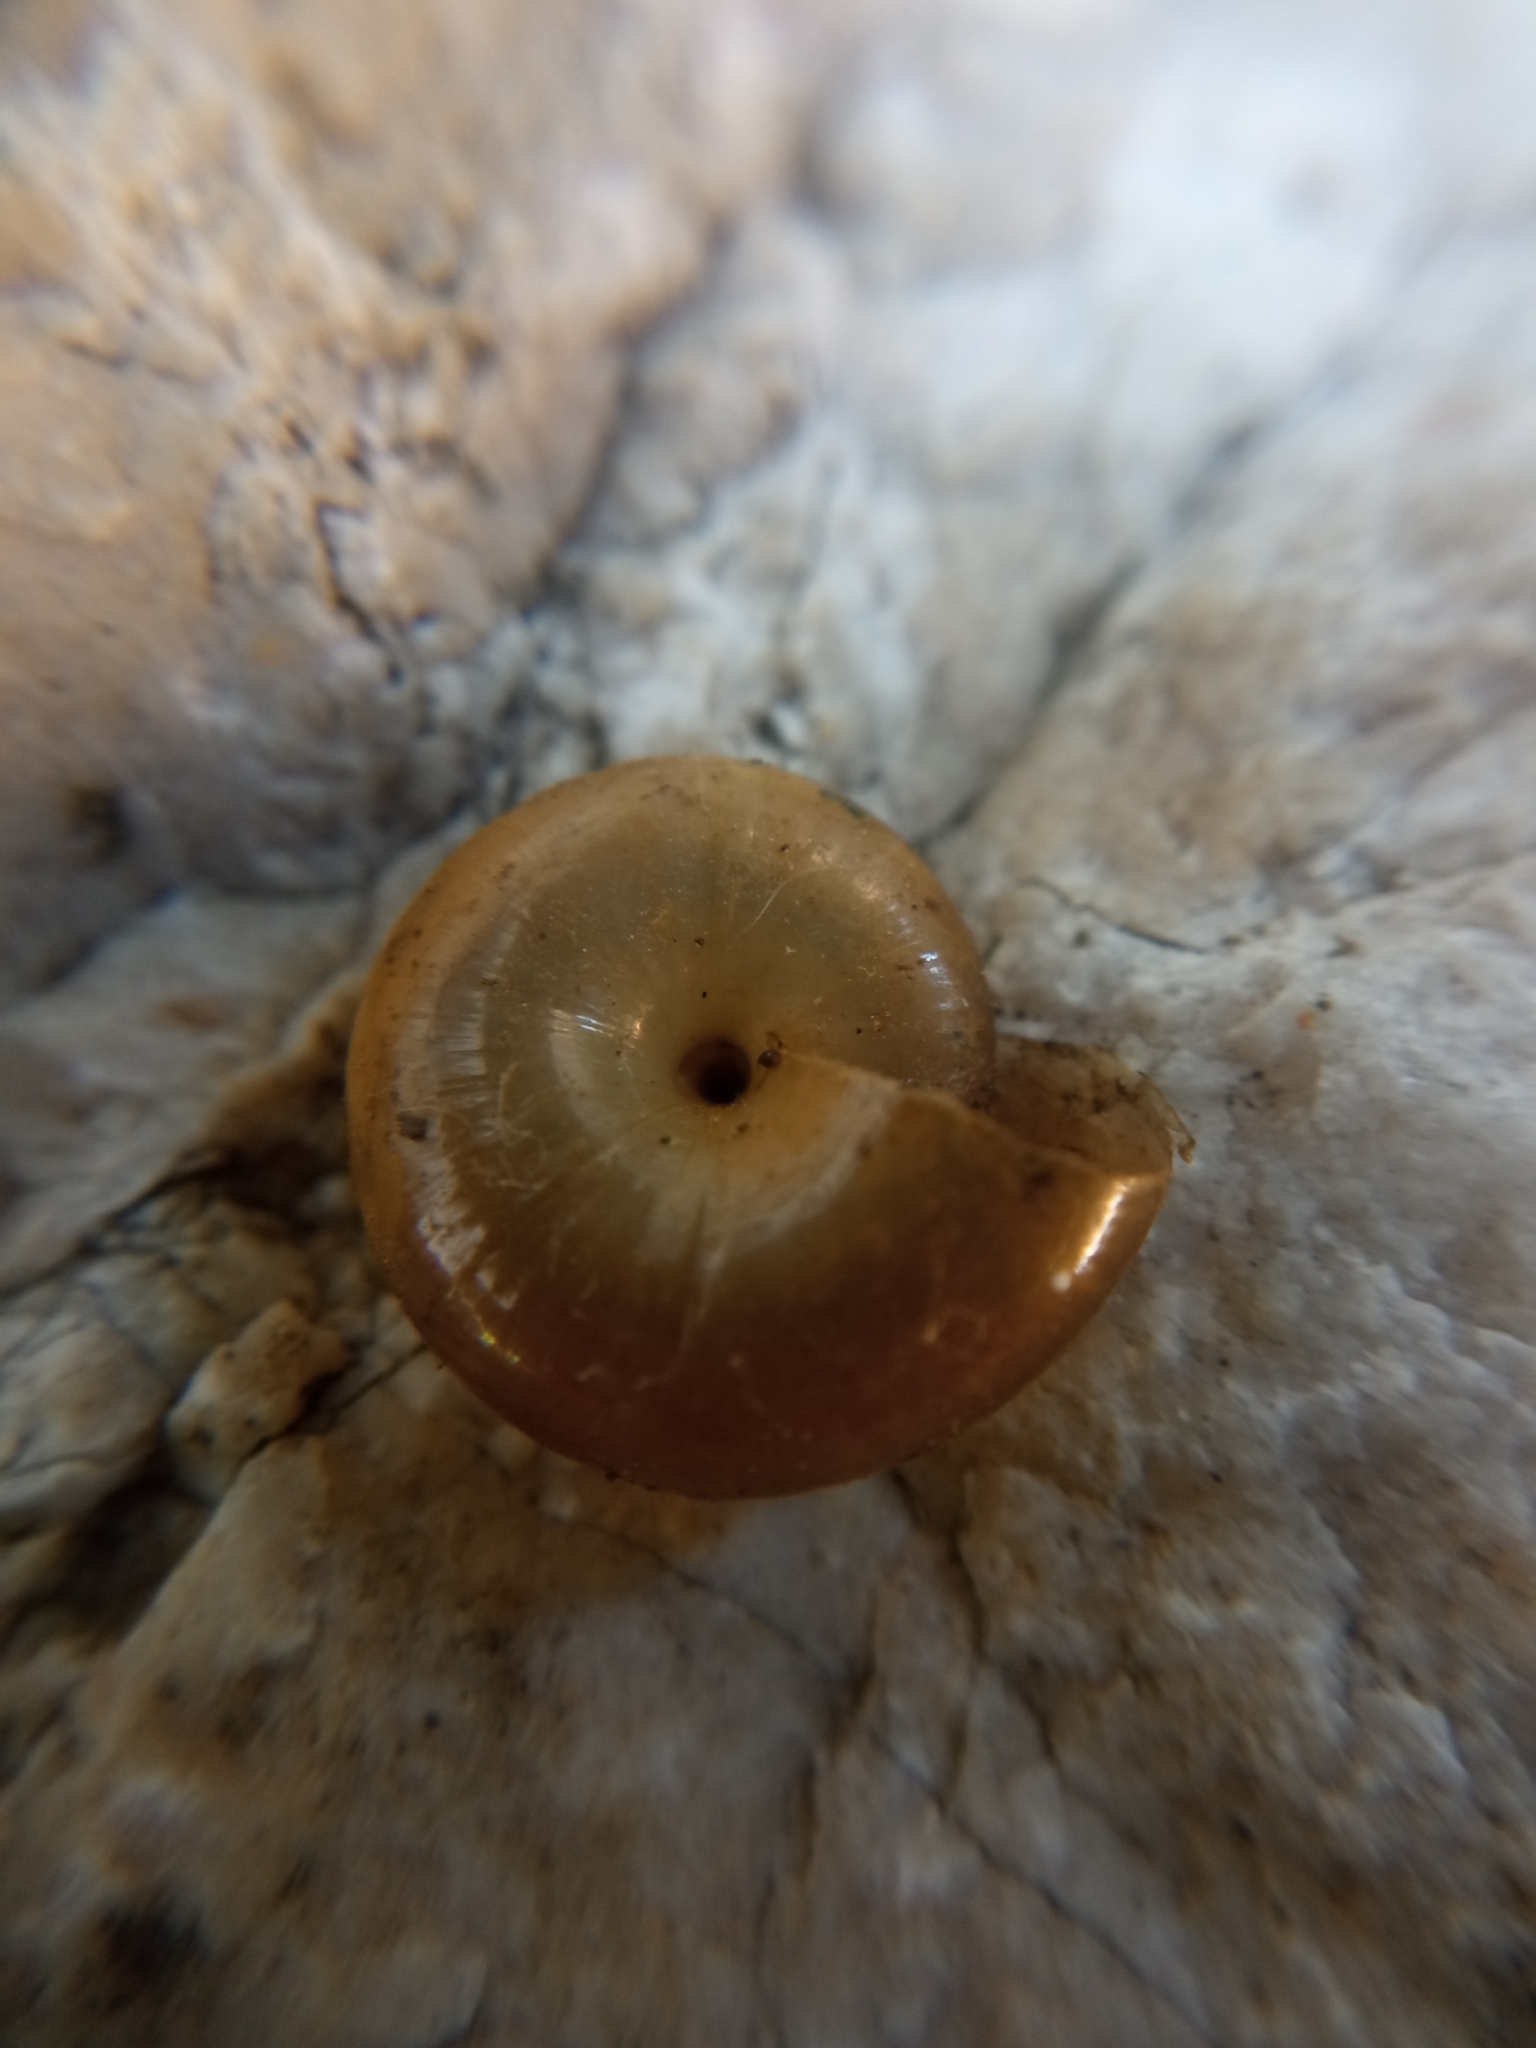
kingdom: Animalia
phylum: Mollusca
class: Gastropoda
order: Stylommatophora
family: Oxychilidae
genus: Morlina
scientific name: Morlina glabra
